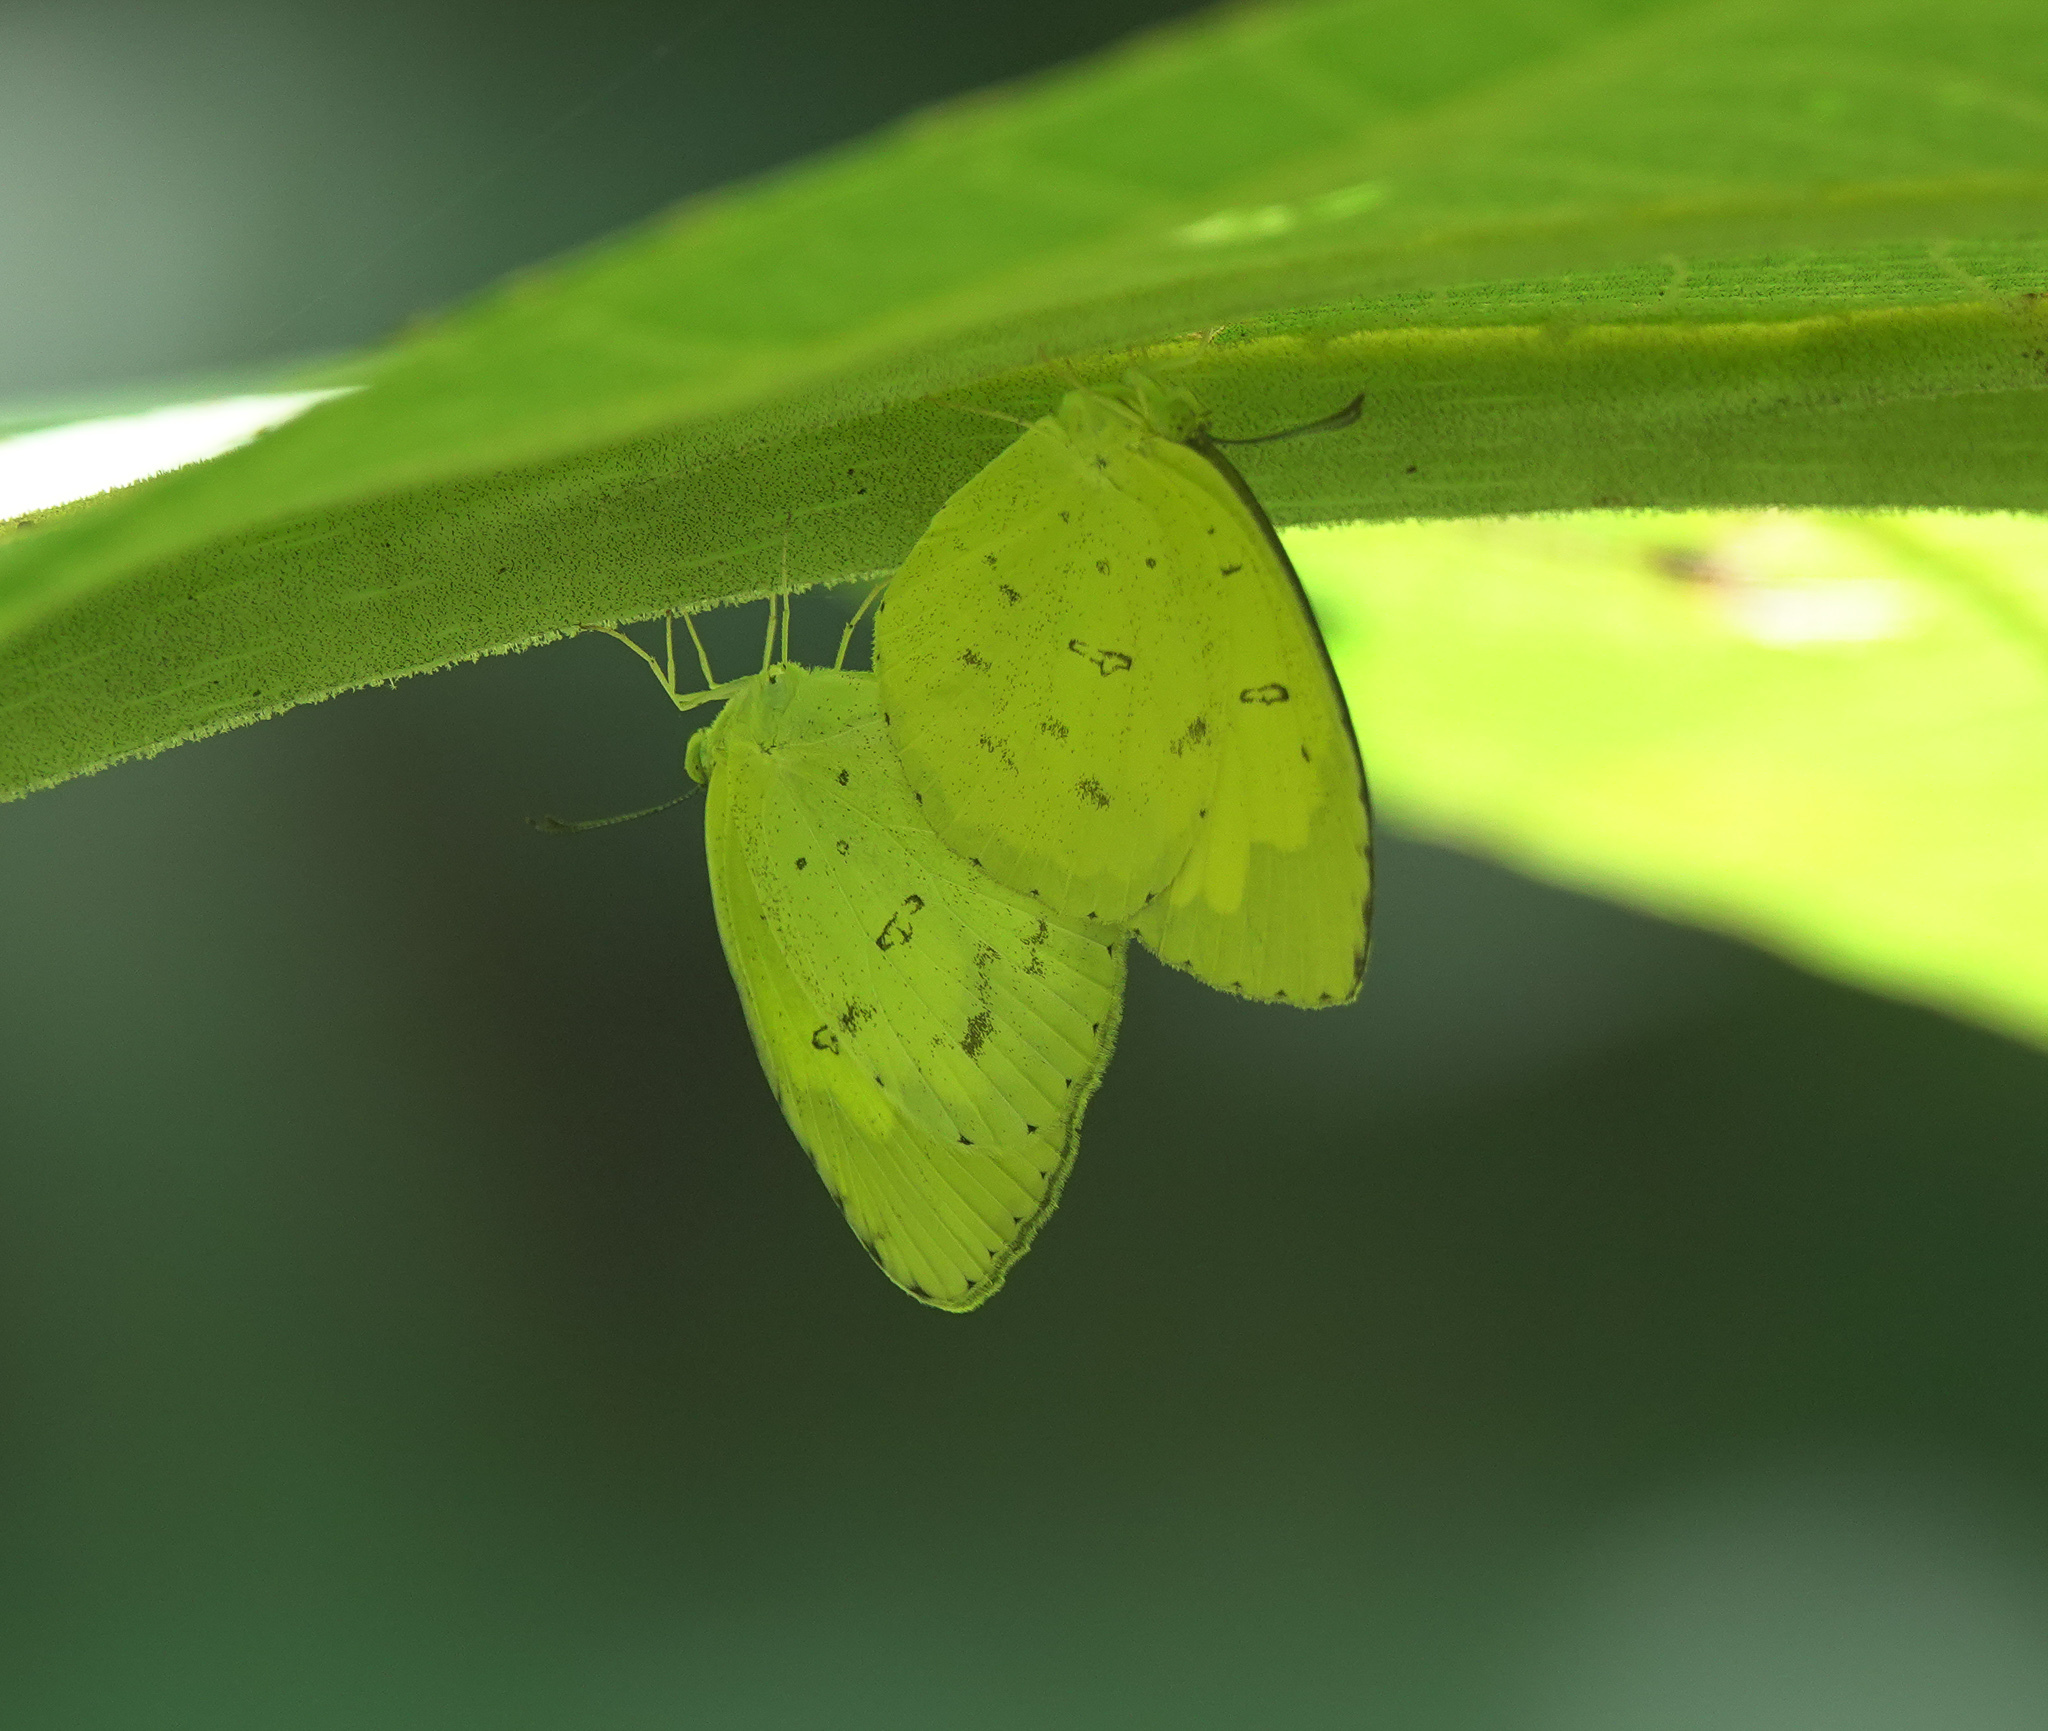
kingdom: Animalia
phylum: Arthropoda
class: Insecta
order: Lepidoptera
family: Pieridae
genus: Eurema
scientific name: Eurema hecabe
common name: Pale grass yellow
